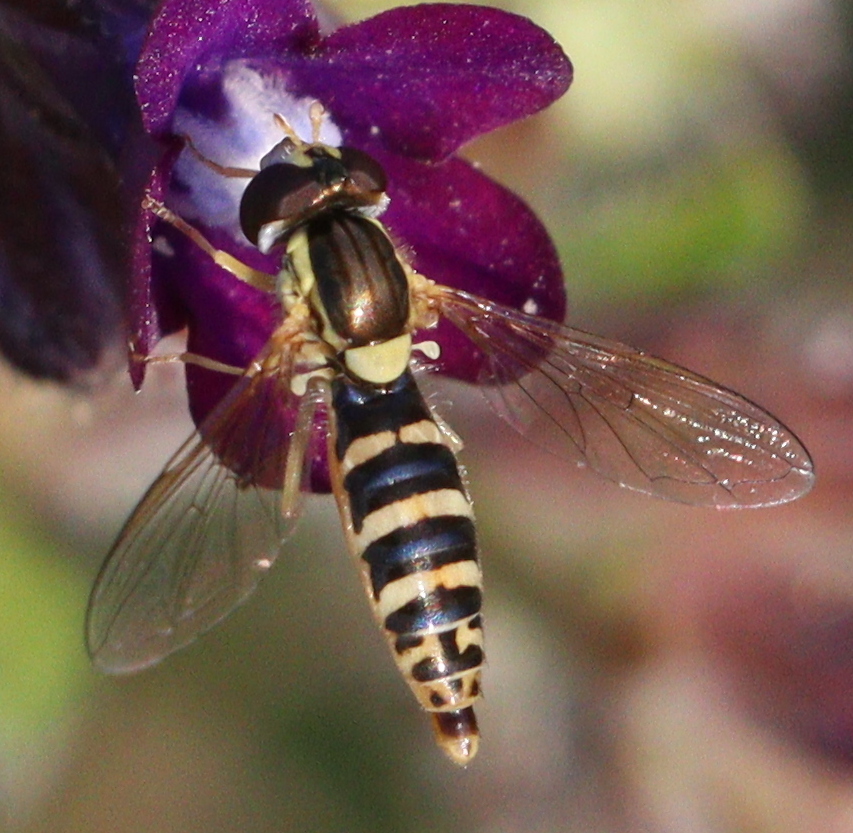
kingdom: Animalia
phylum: Arthropoda
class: Insecta
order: Diptera
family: Syrphidae
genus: Sphaerophoria
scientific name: Sphaerophoria scripta
